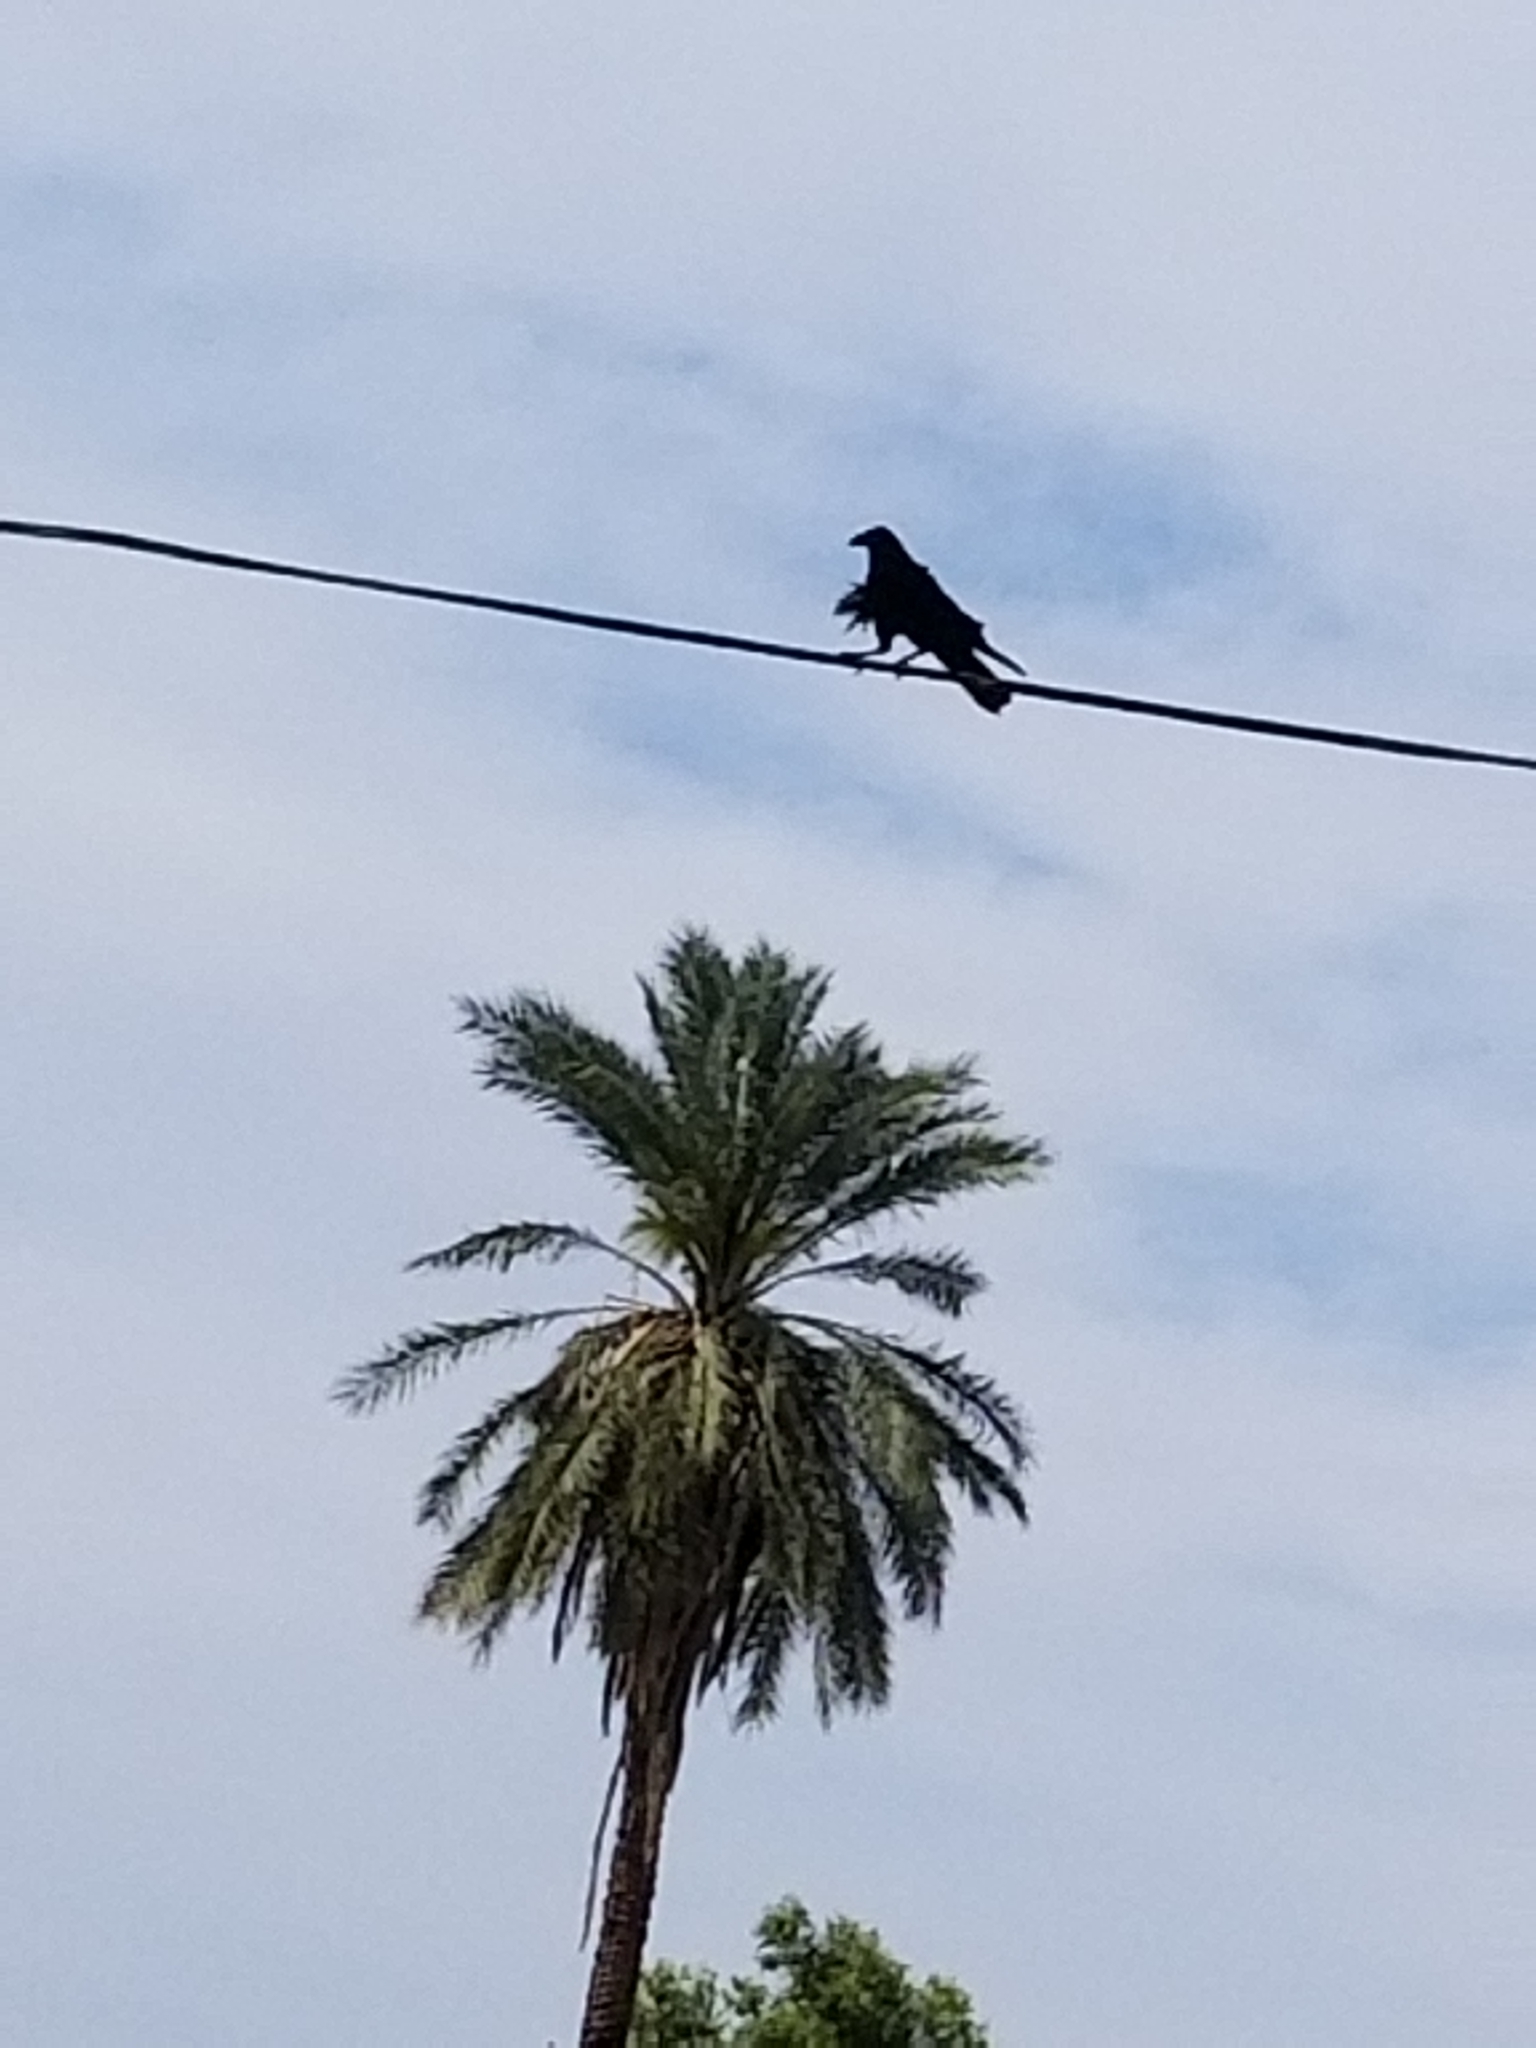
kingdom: Animalia
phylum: Chordata
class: Aves
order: Passeriformes
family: Corvidae
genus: Corvus
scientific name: Corvus corax
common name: Common raven
